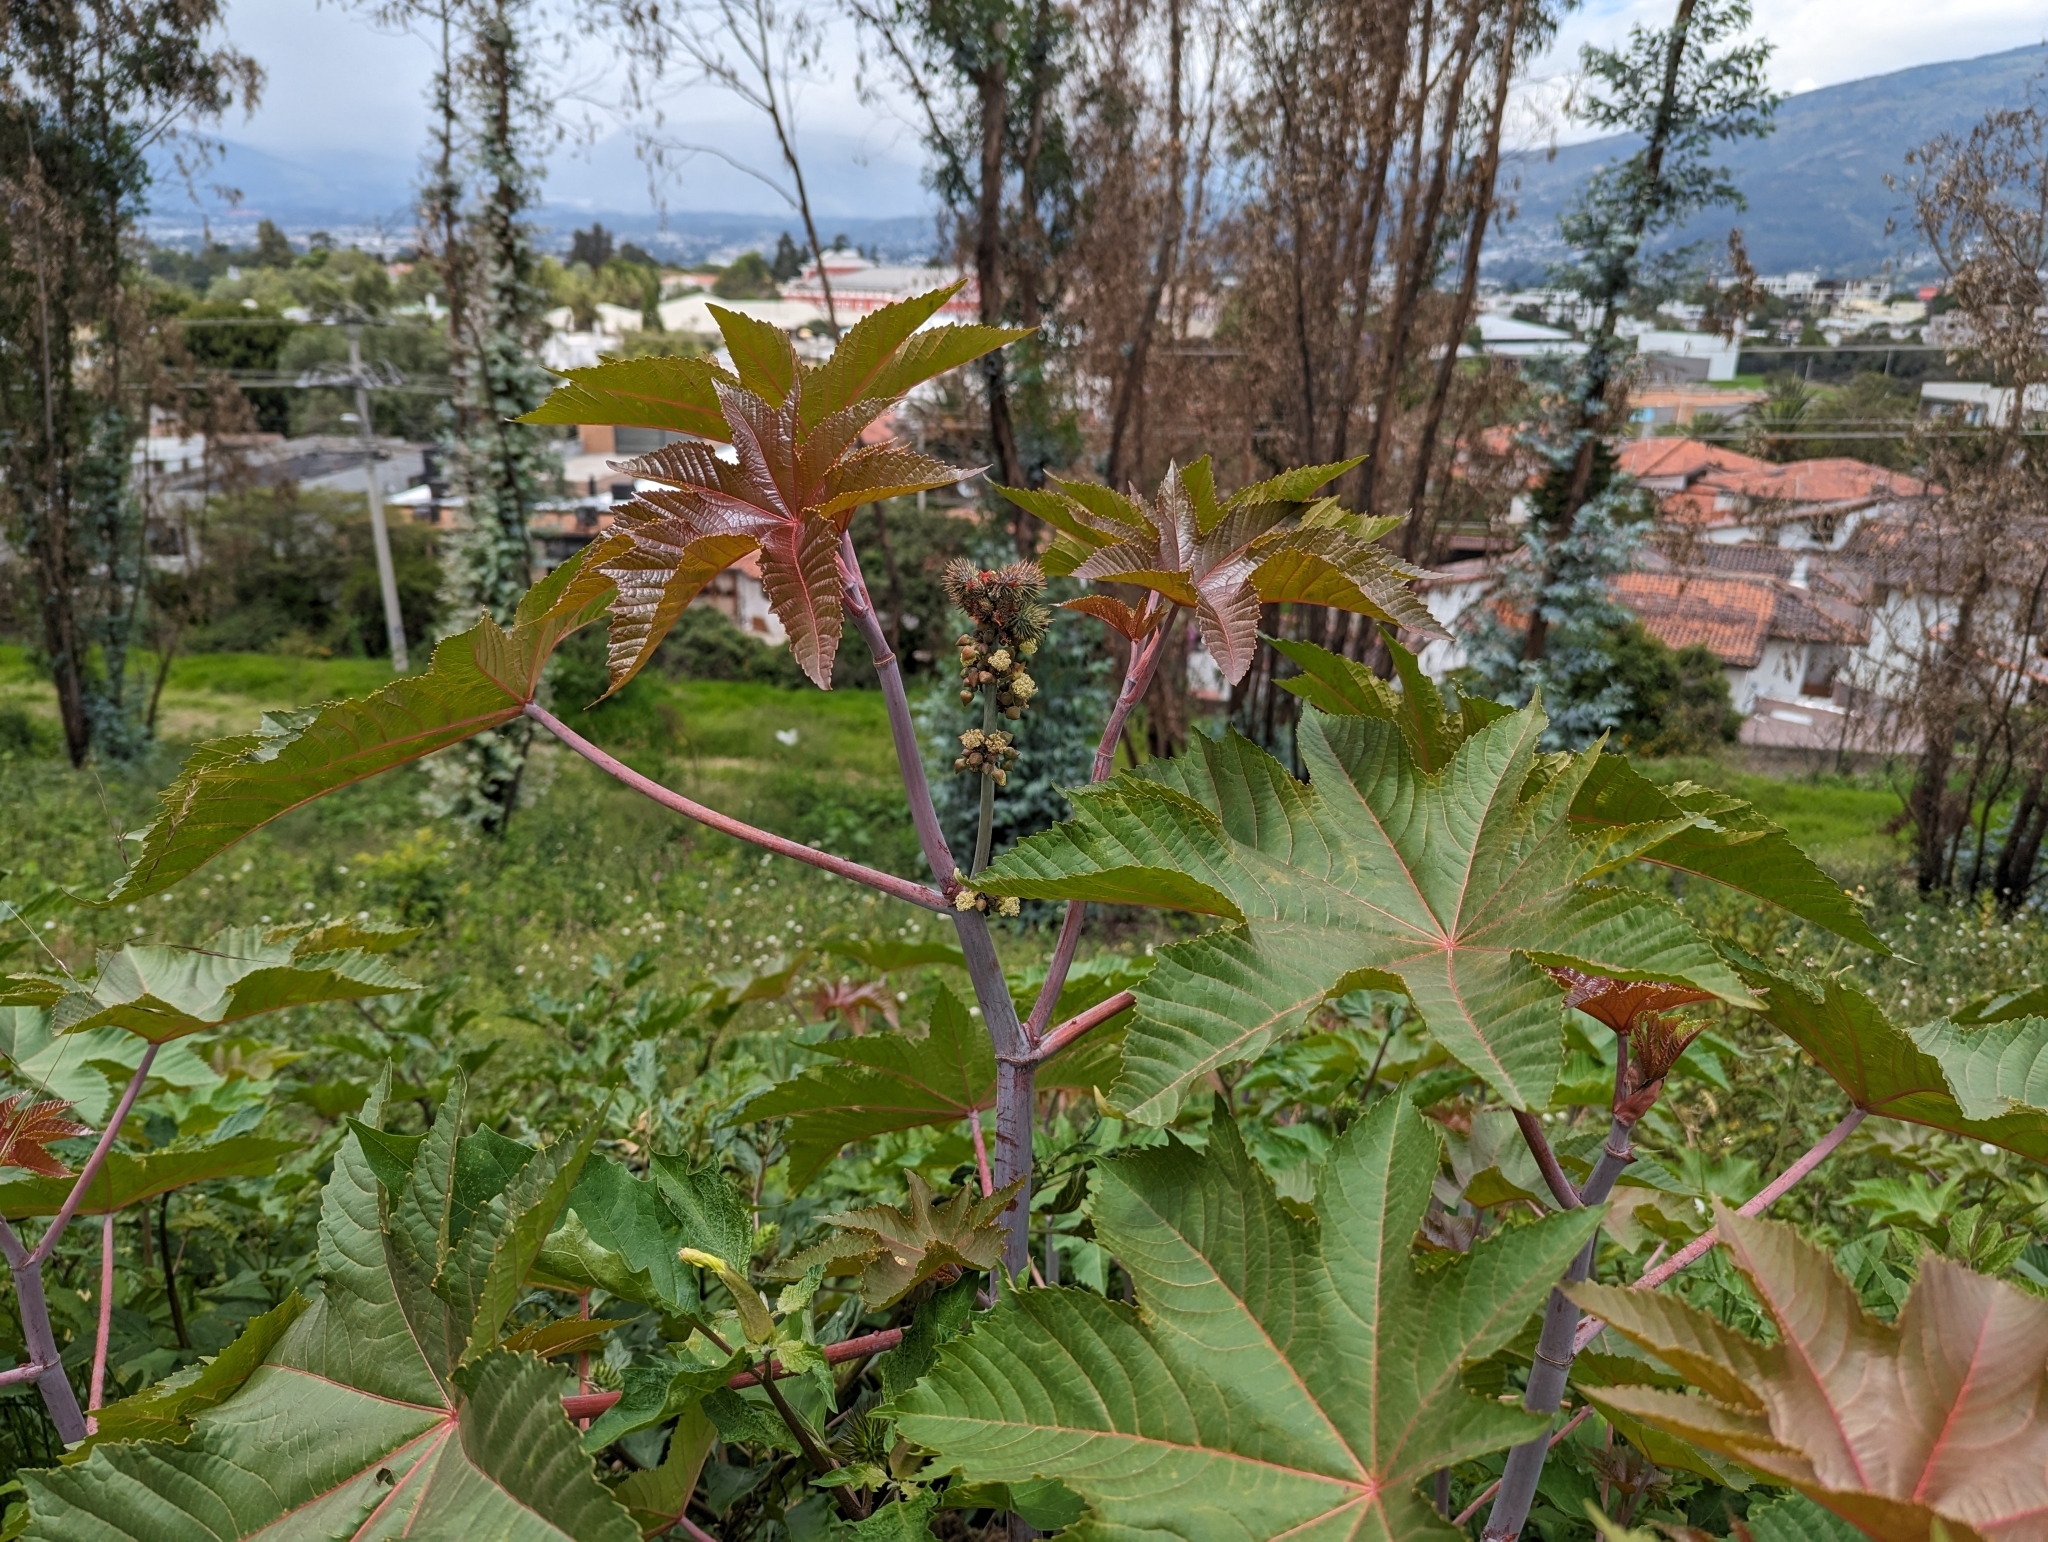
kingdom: Plantae
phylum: Tracheophyta
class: Magnoliopsida
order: Malpighiales
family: Euphorbiaceae
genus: Ricinus
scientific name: Ricinus communis
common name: Castor-oil-plant
